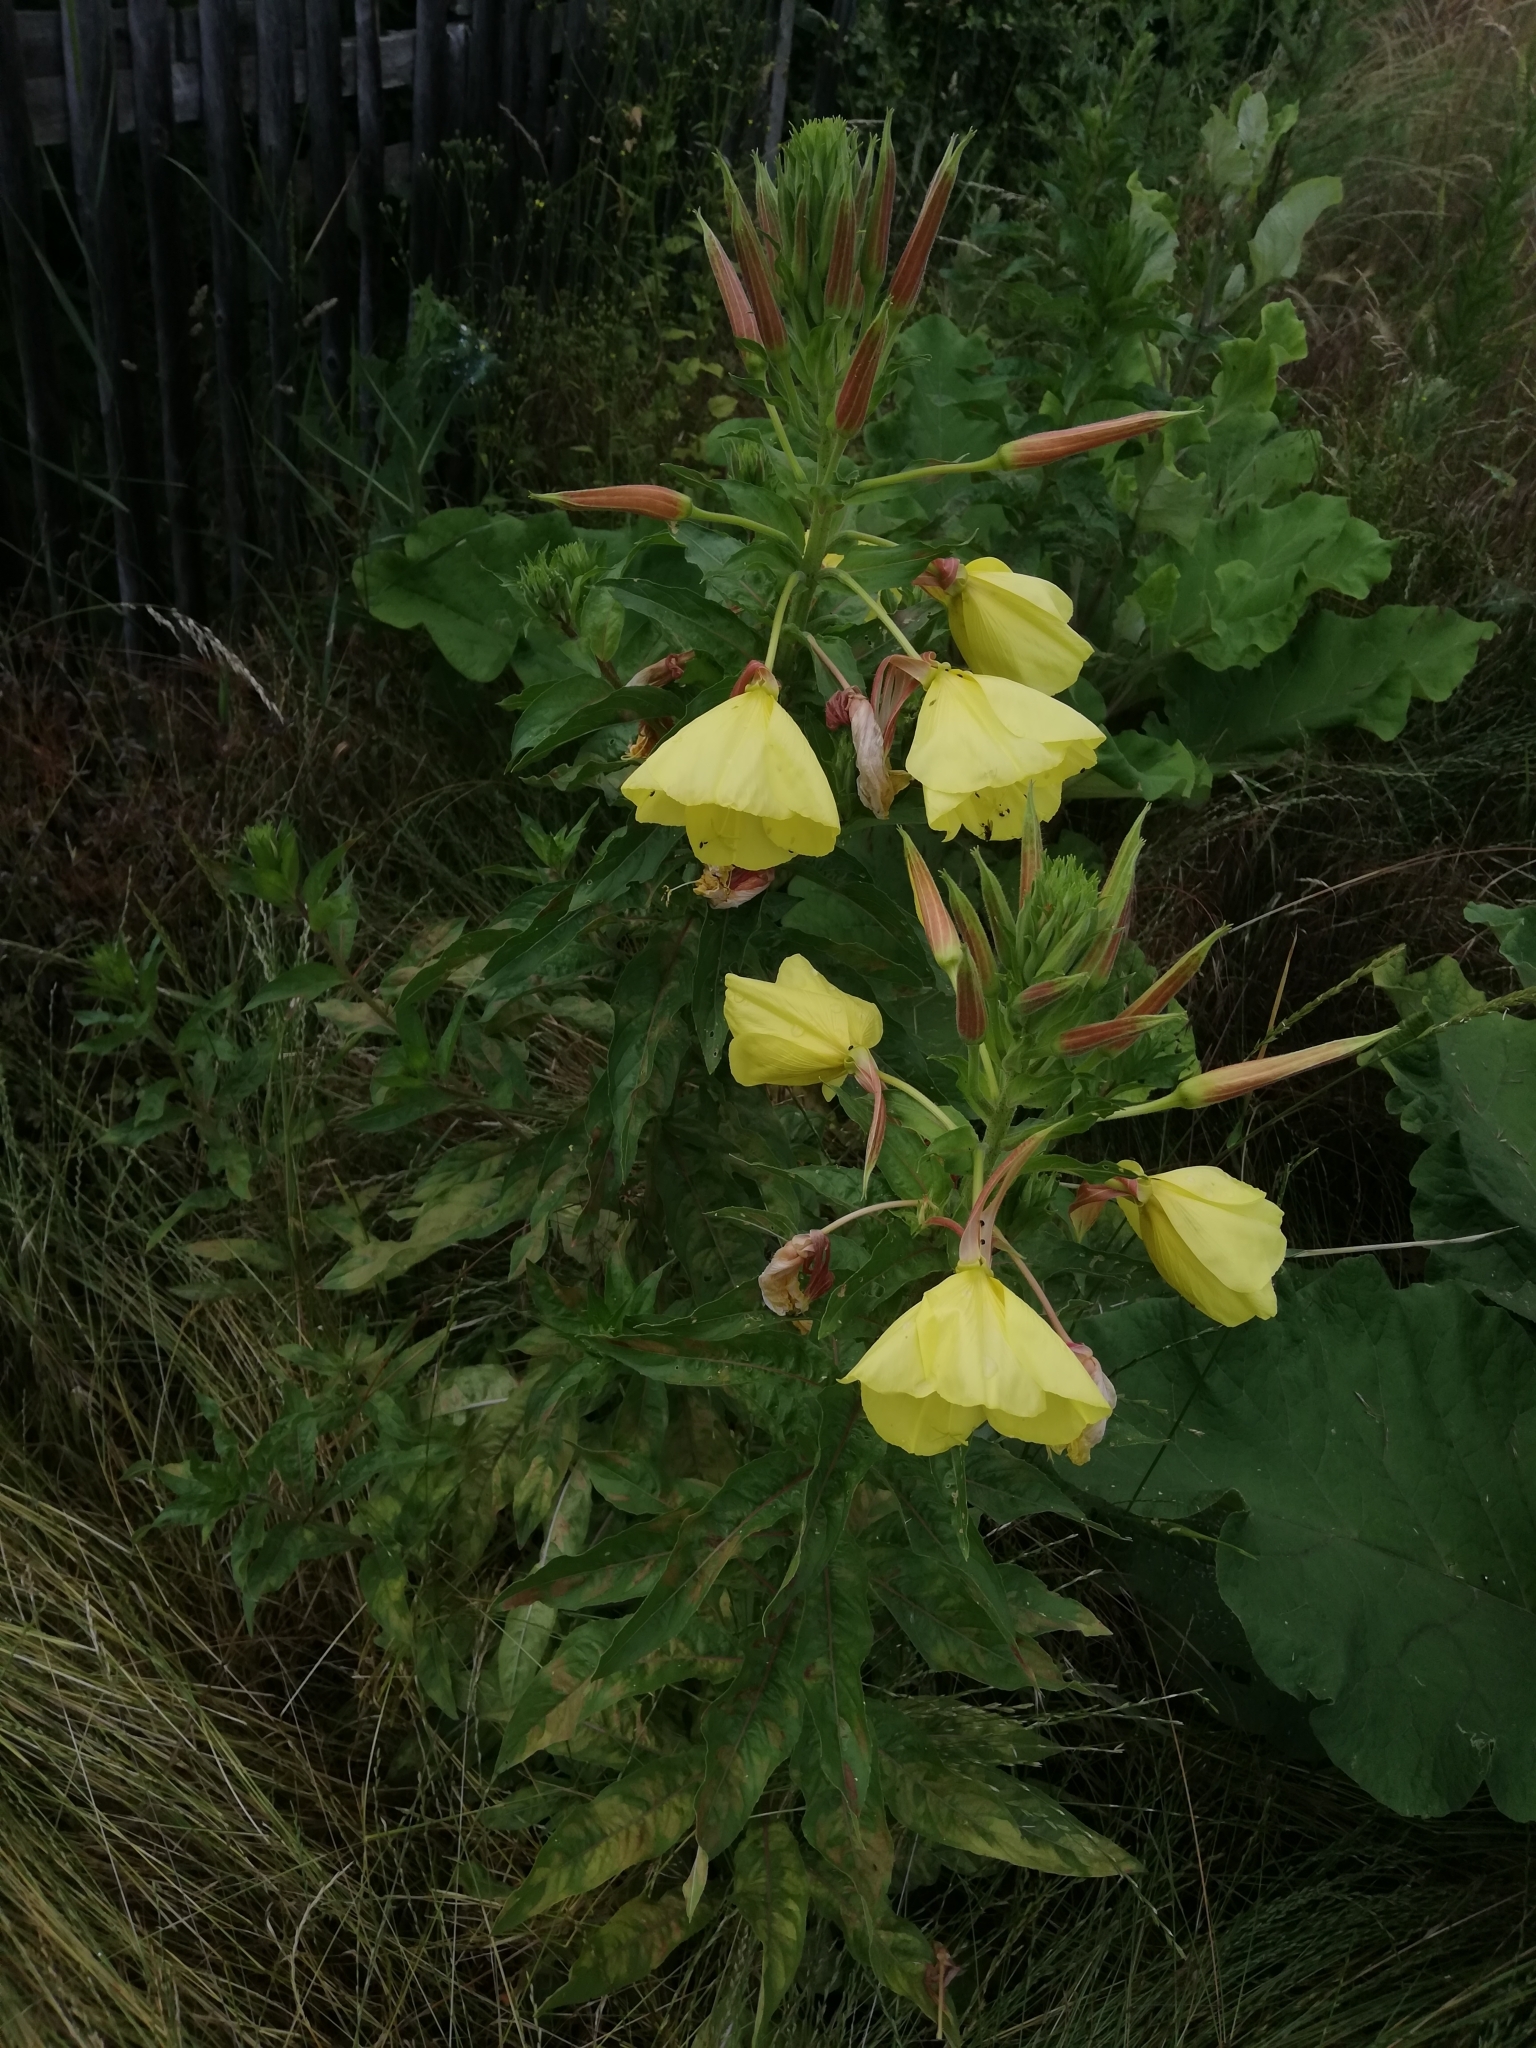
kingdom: Plantae
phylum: Tracheophyta
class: Magnoliopsida
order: Myrtales
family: Onagraceae
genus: Oenothera
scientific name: Oenothera glazioviana
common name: Large-flowered evening-primrose
